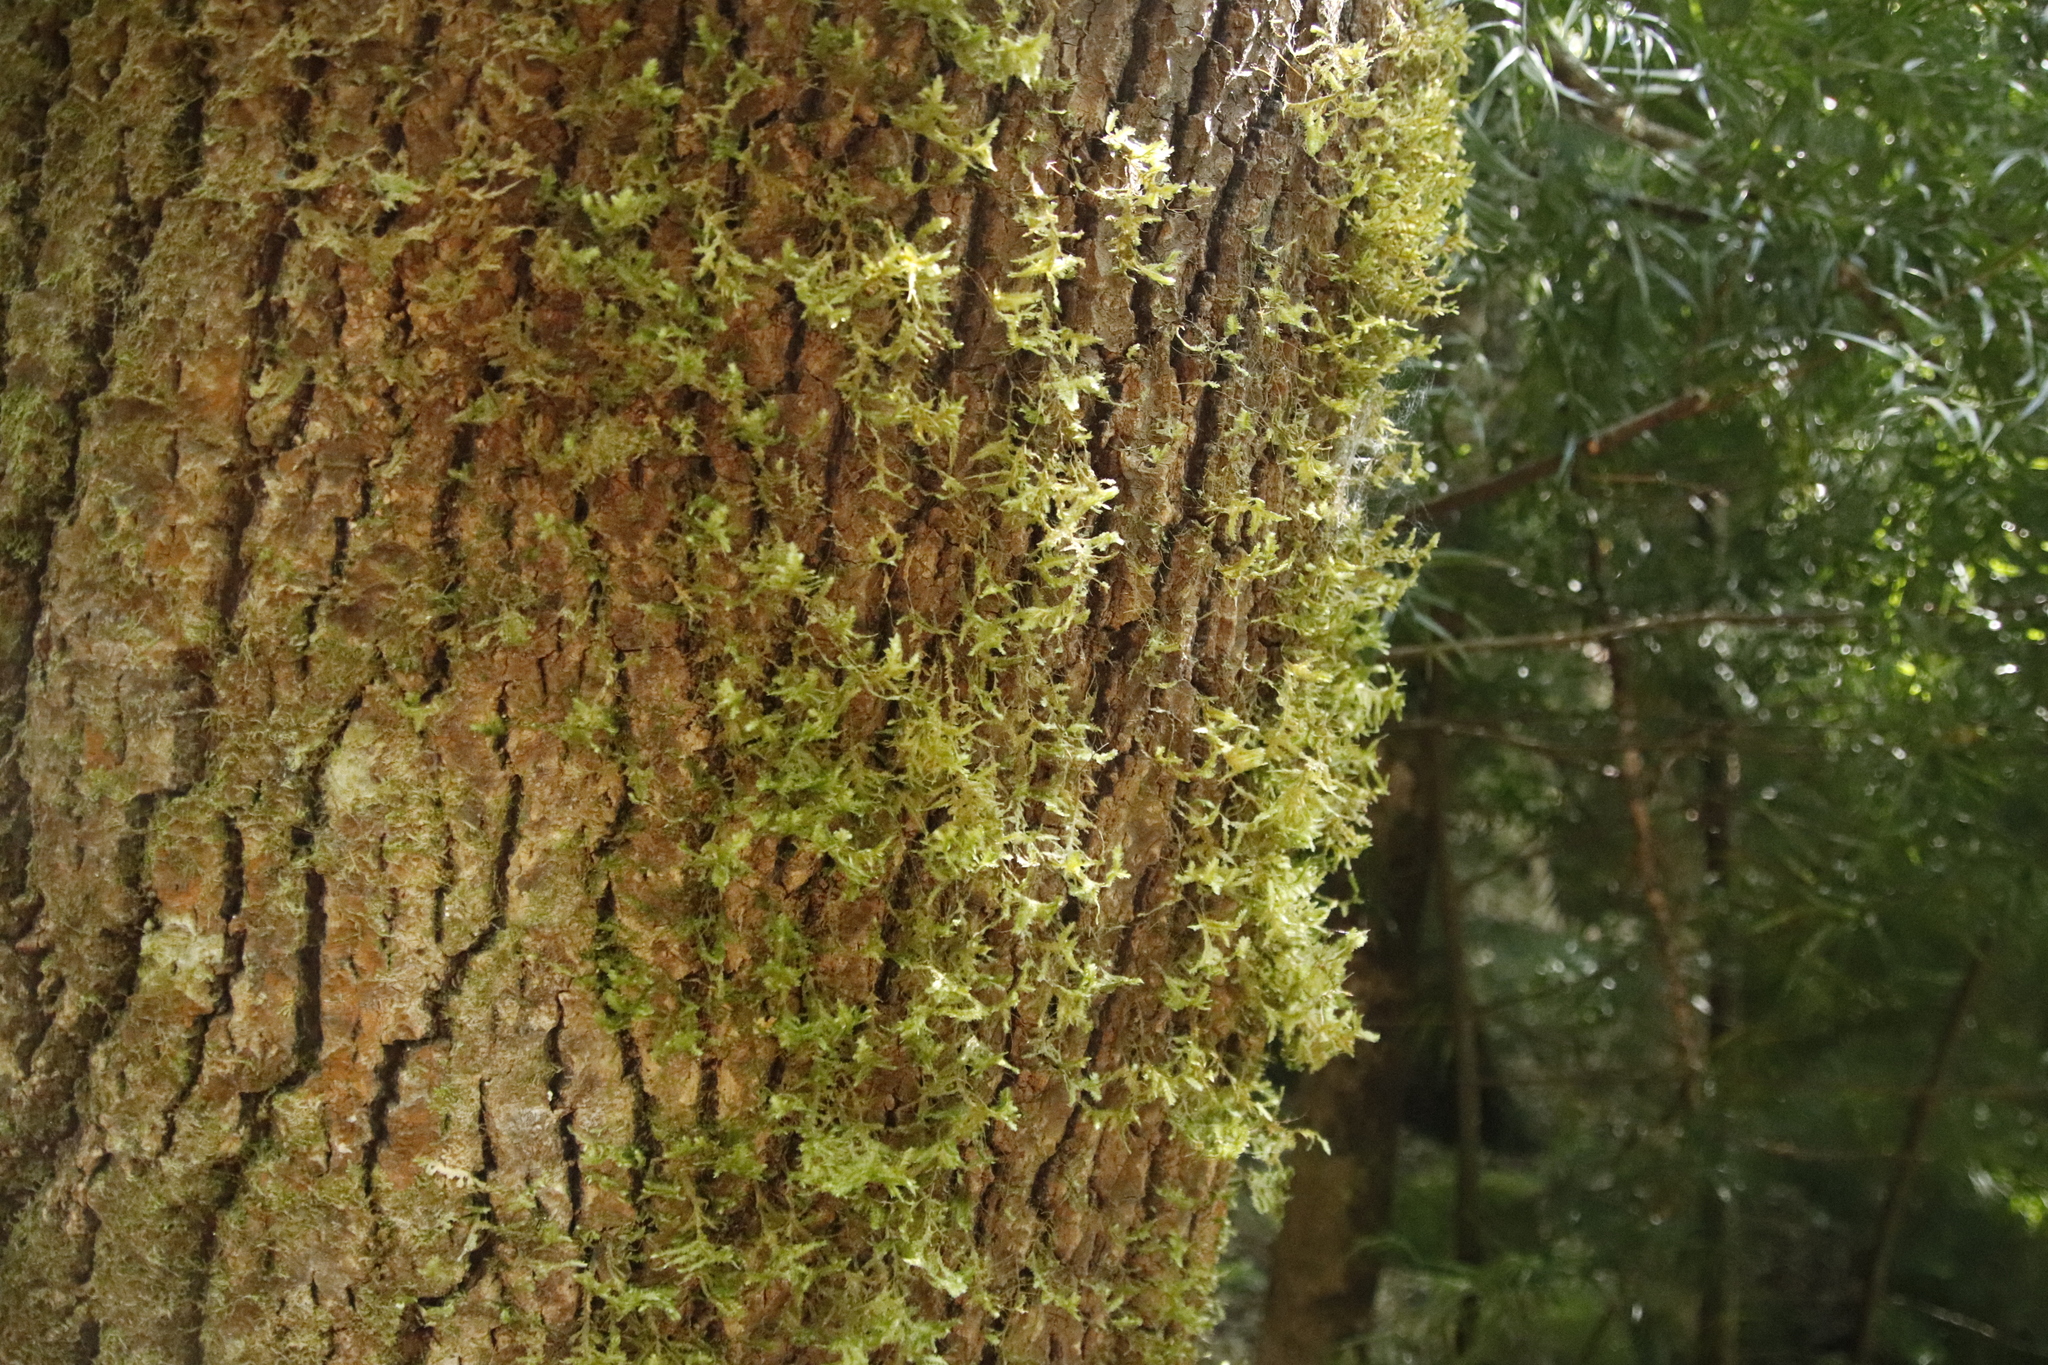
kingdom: Plantae
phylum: Bryophyta
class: Bryopsida
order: Hypnales
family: Neckeraceae
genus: Alleniella
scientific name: Alleniella ehrenbergii
